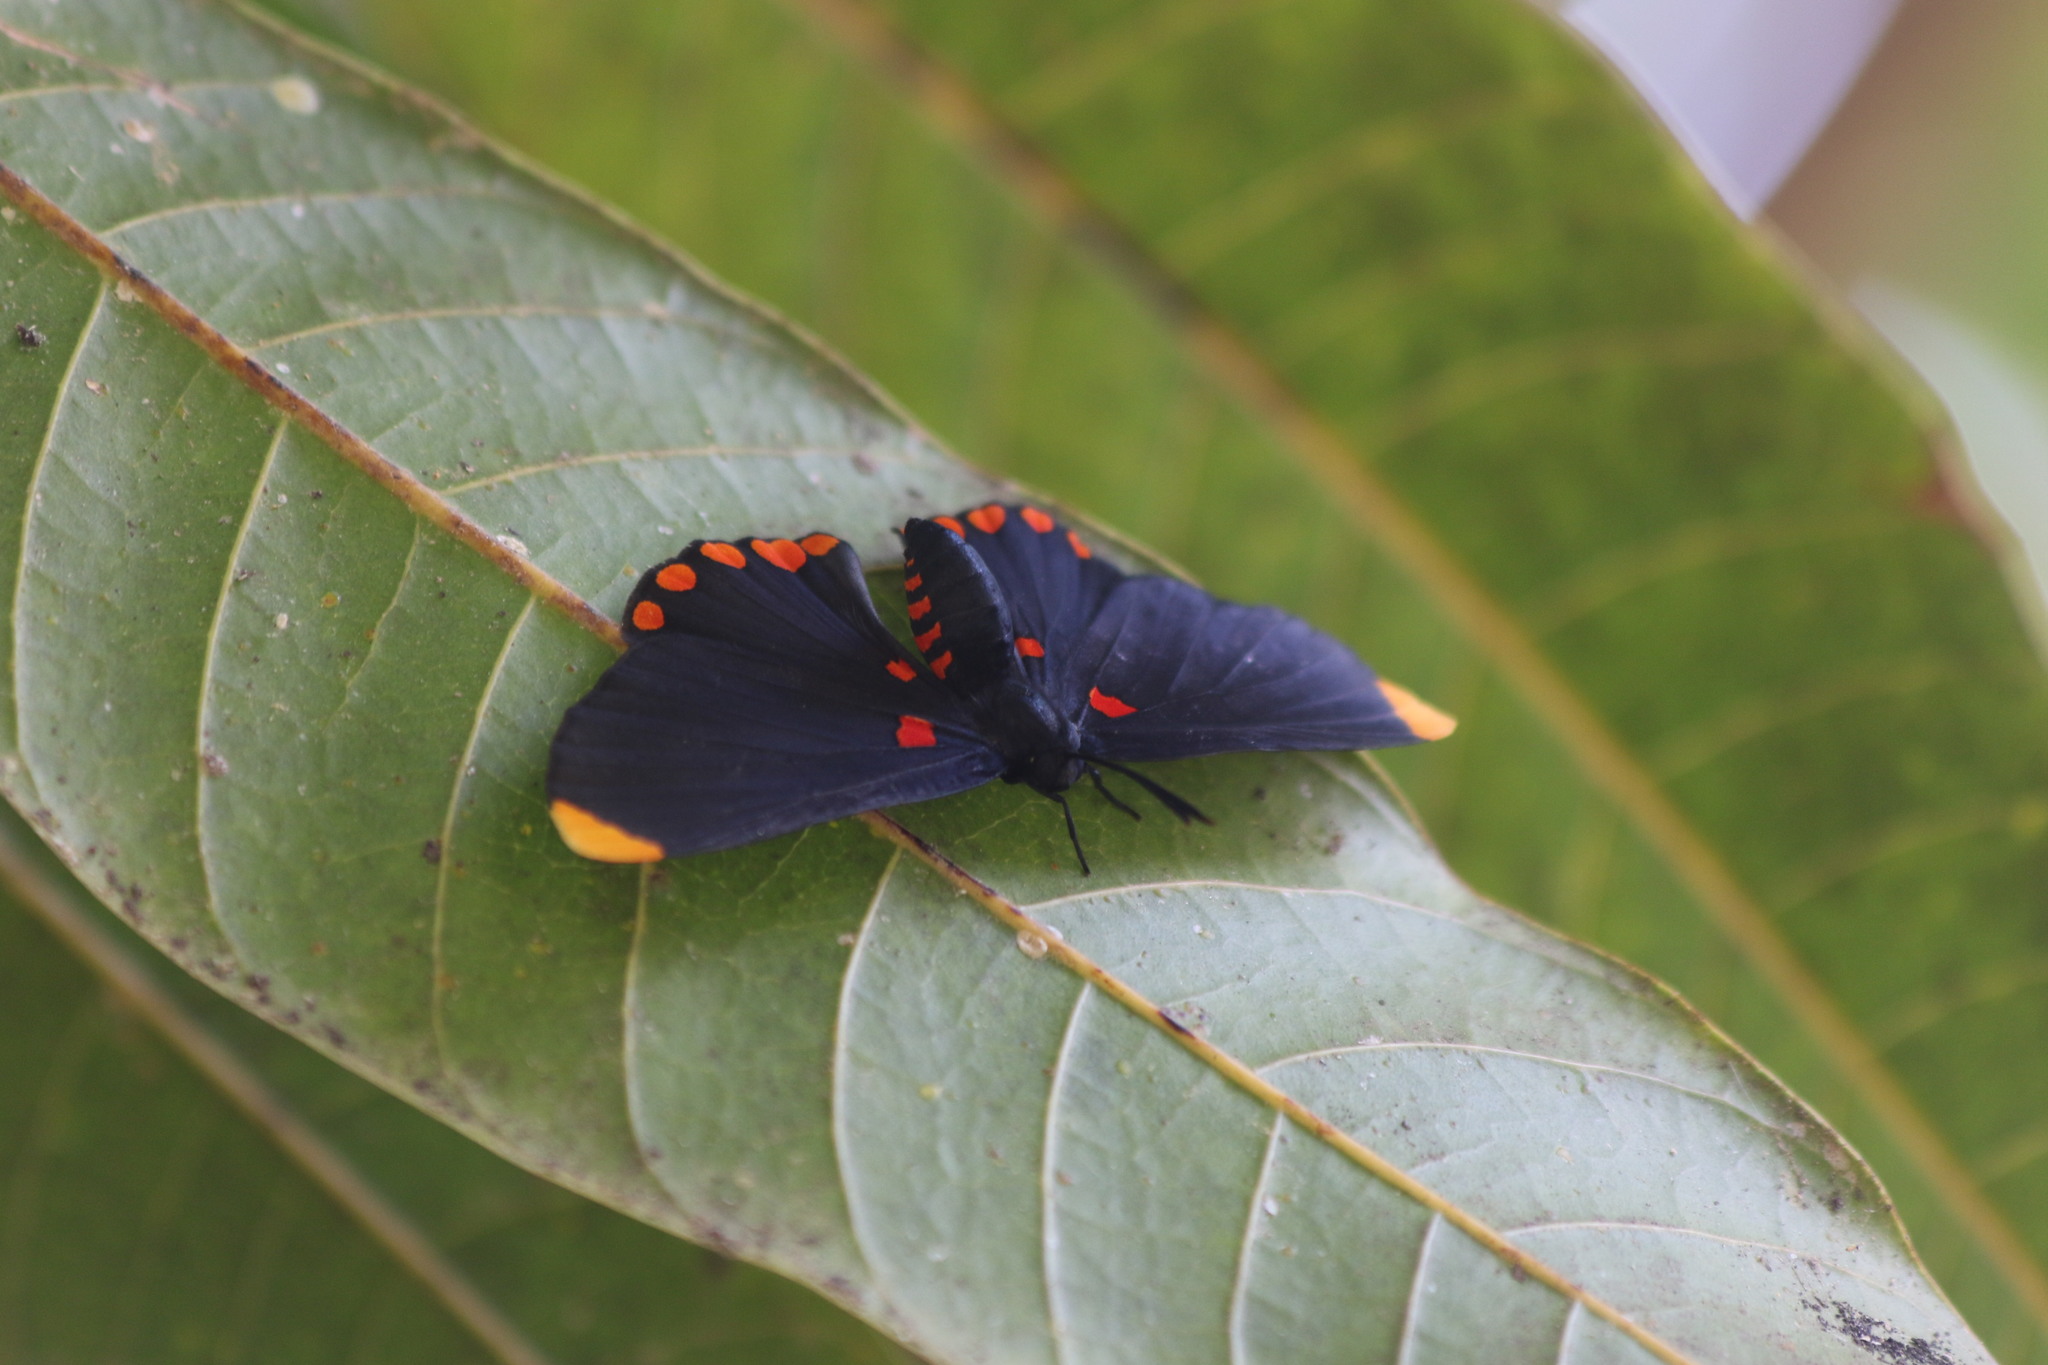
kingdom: Animalia
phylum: Arthropoda
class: Insecta
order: Lepidoptera
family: Lycaenidae
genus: Melanis
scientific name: Melanis pixe
